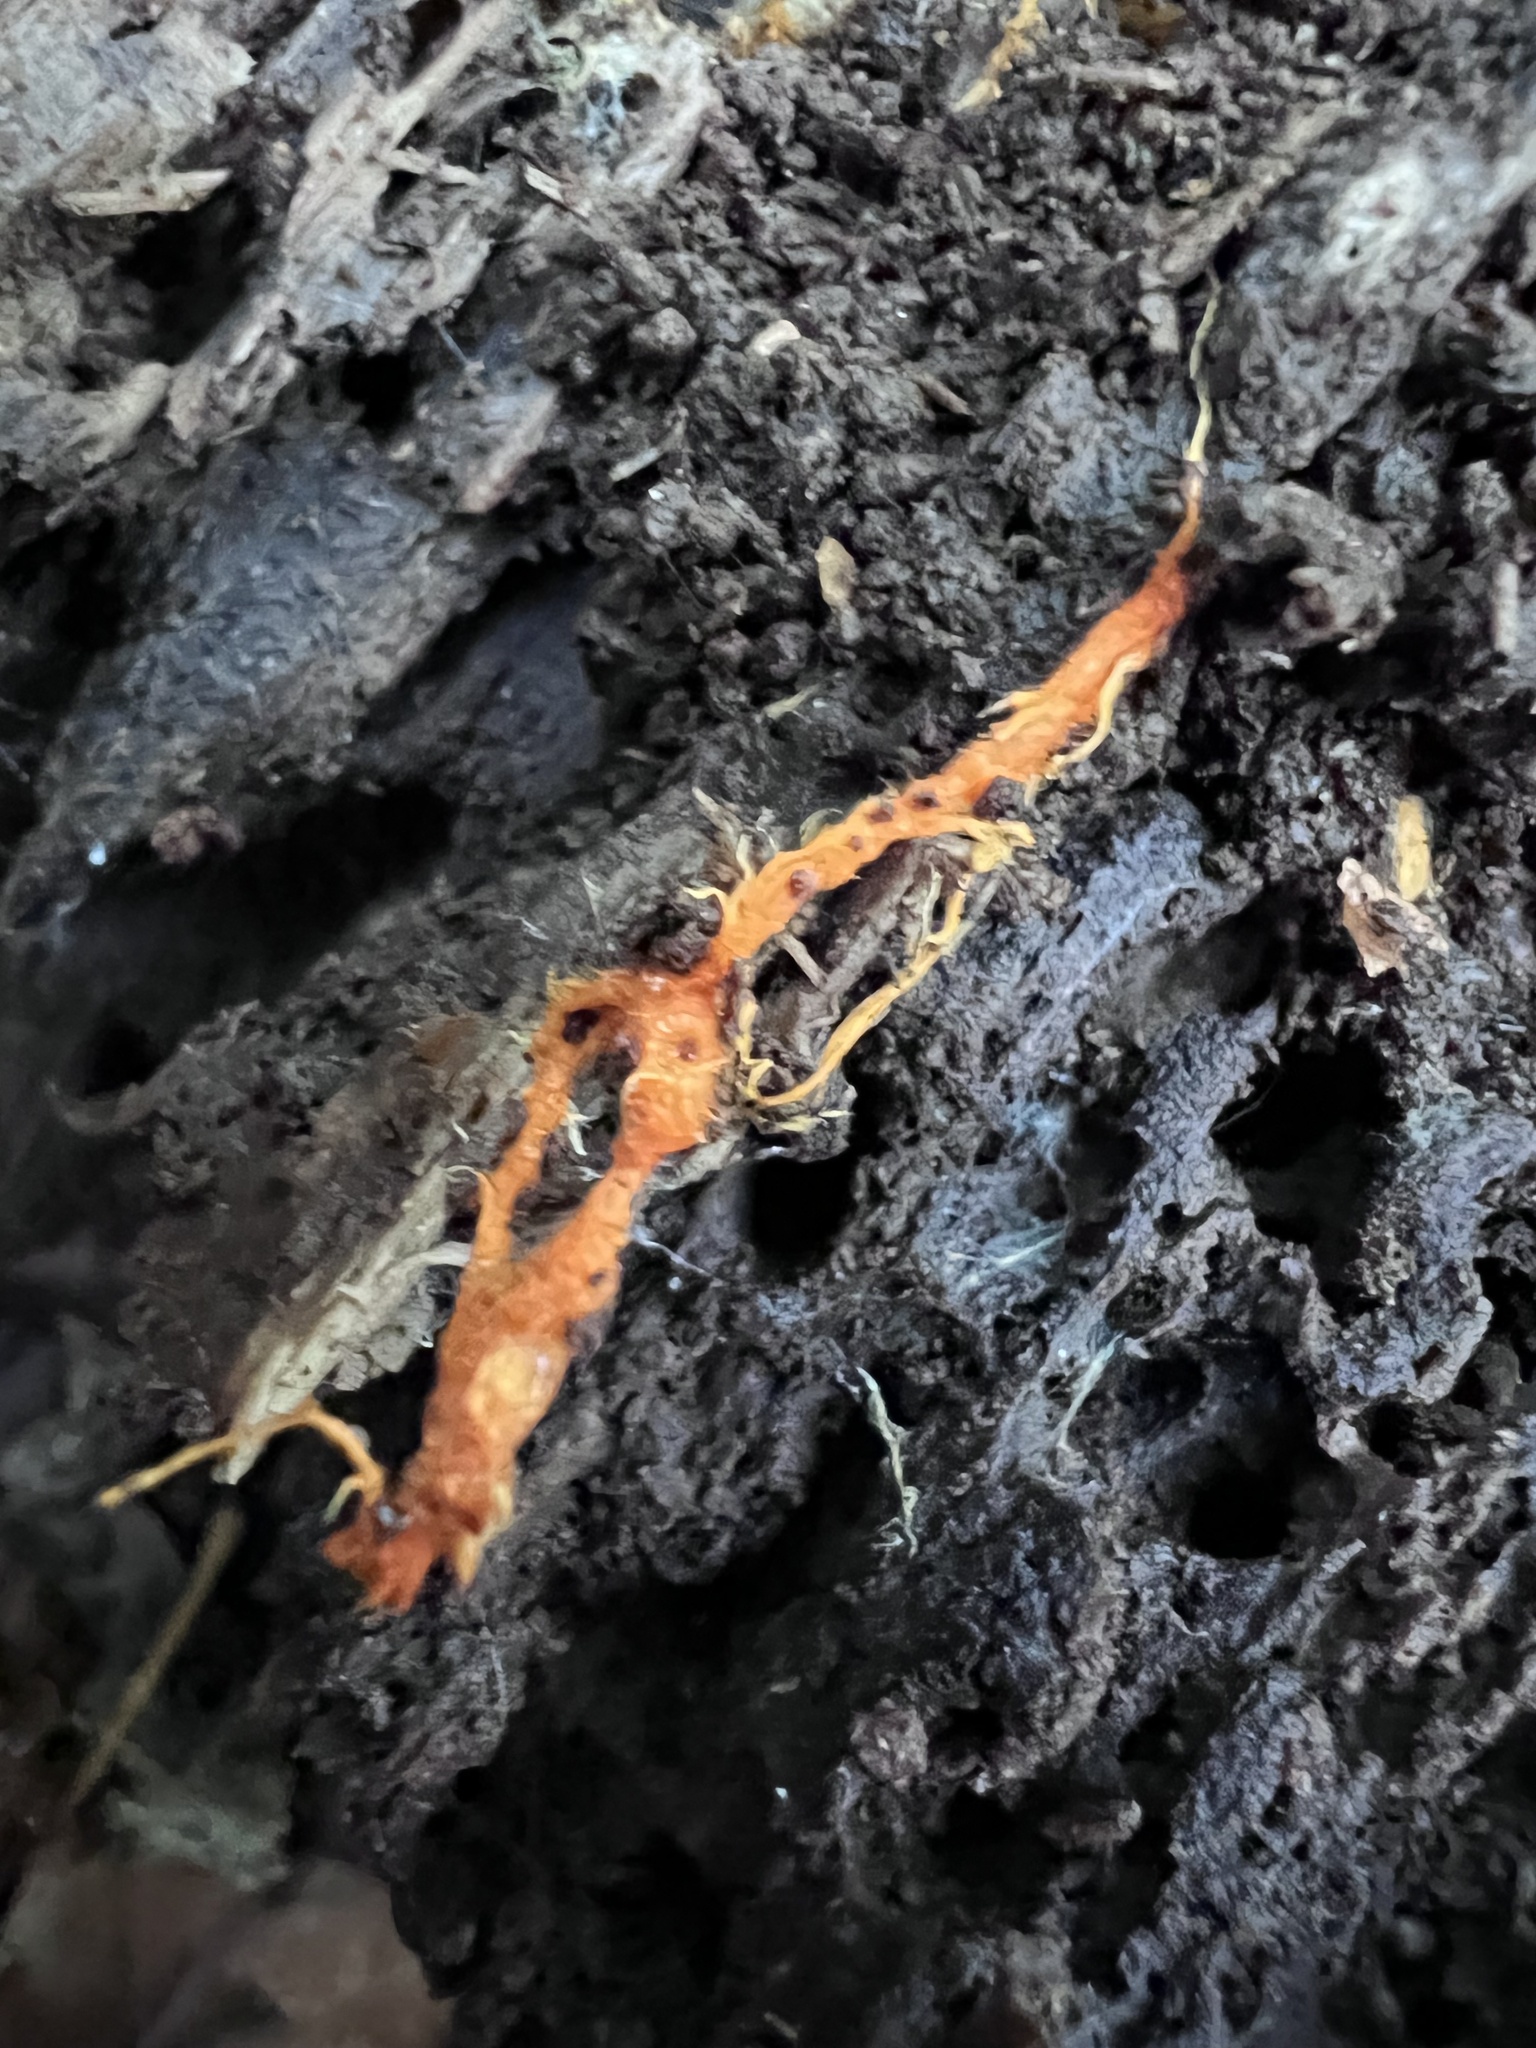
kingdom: Fungi
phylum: Basidiomycota
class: Agaricomycetes
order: Polyporales
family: Meruliaceae
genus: Hydnophlebia
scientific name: Hydnophlebia chrysorhiza
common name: Spreading yellow tooth
